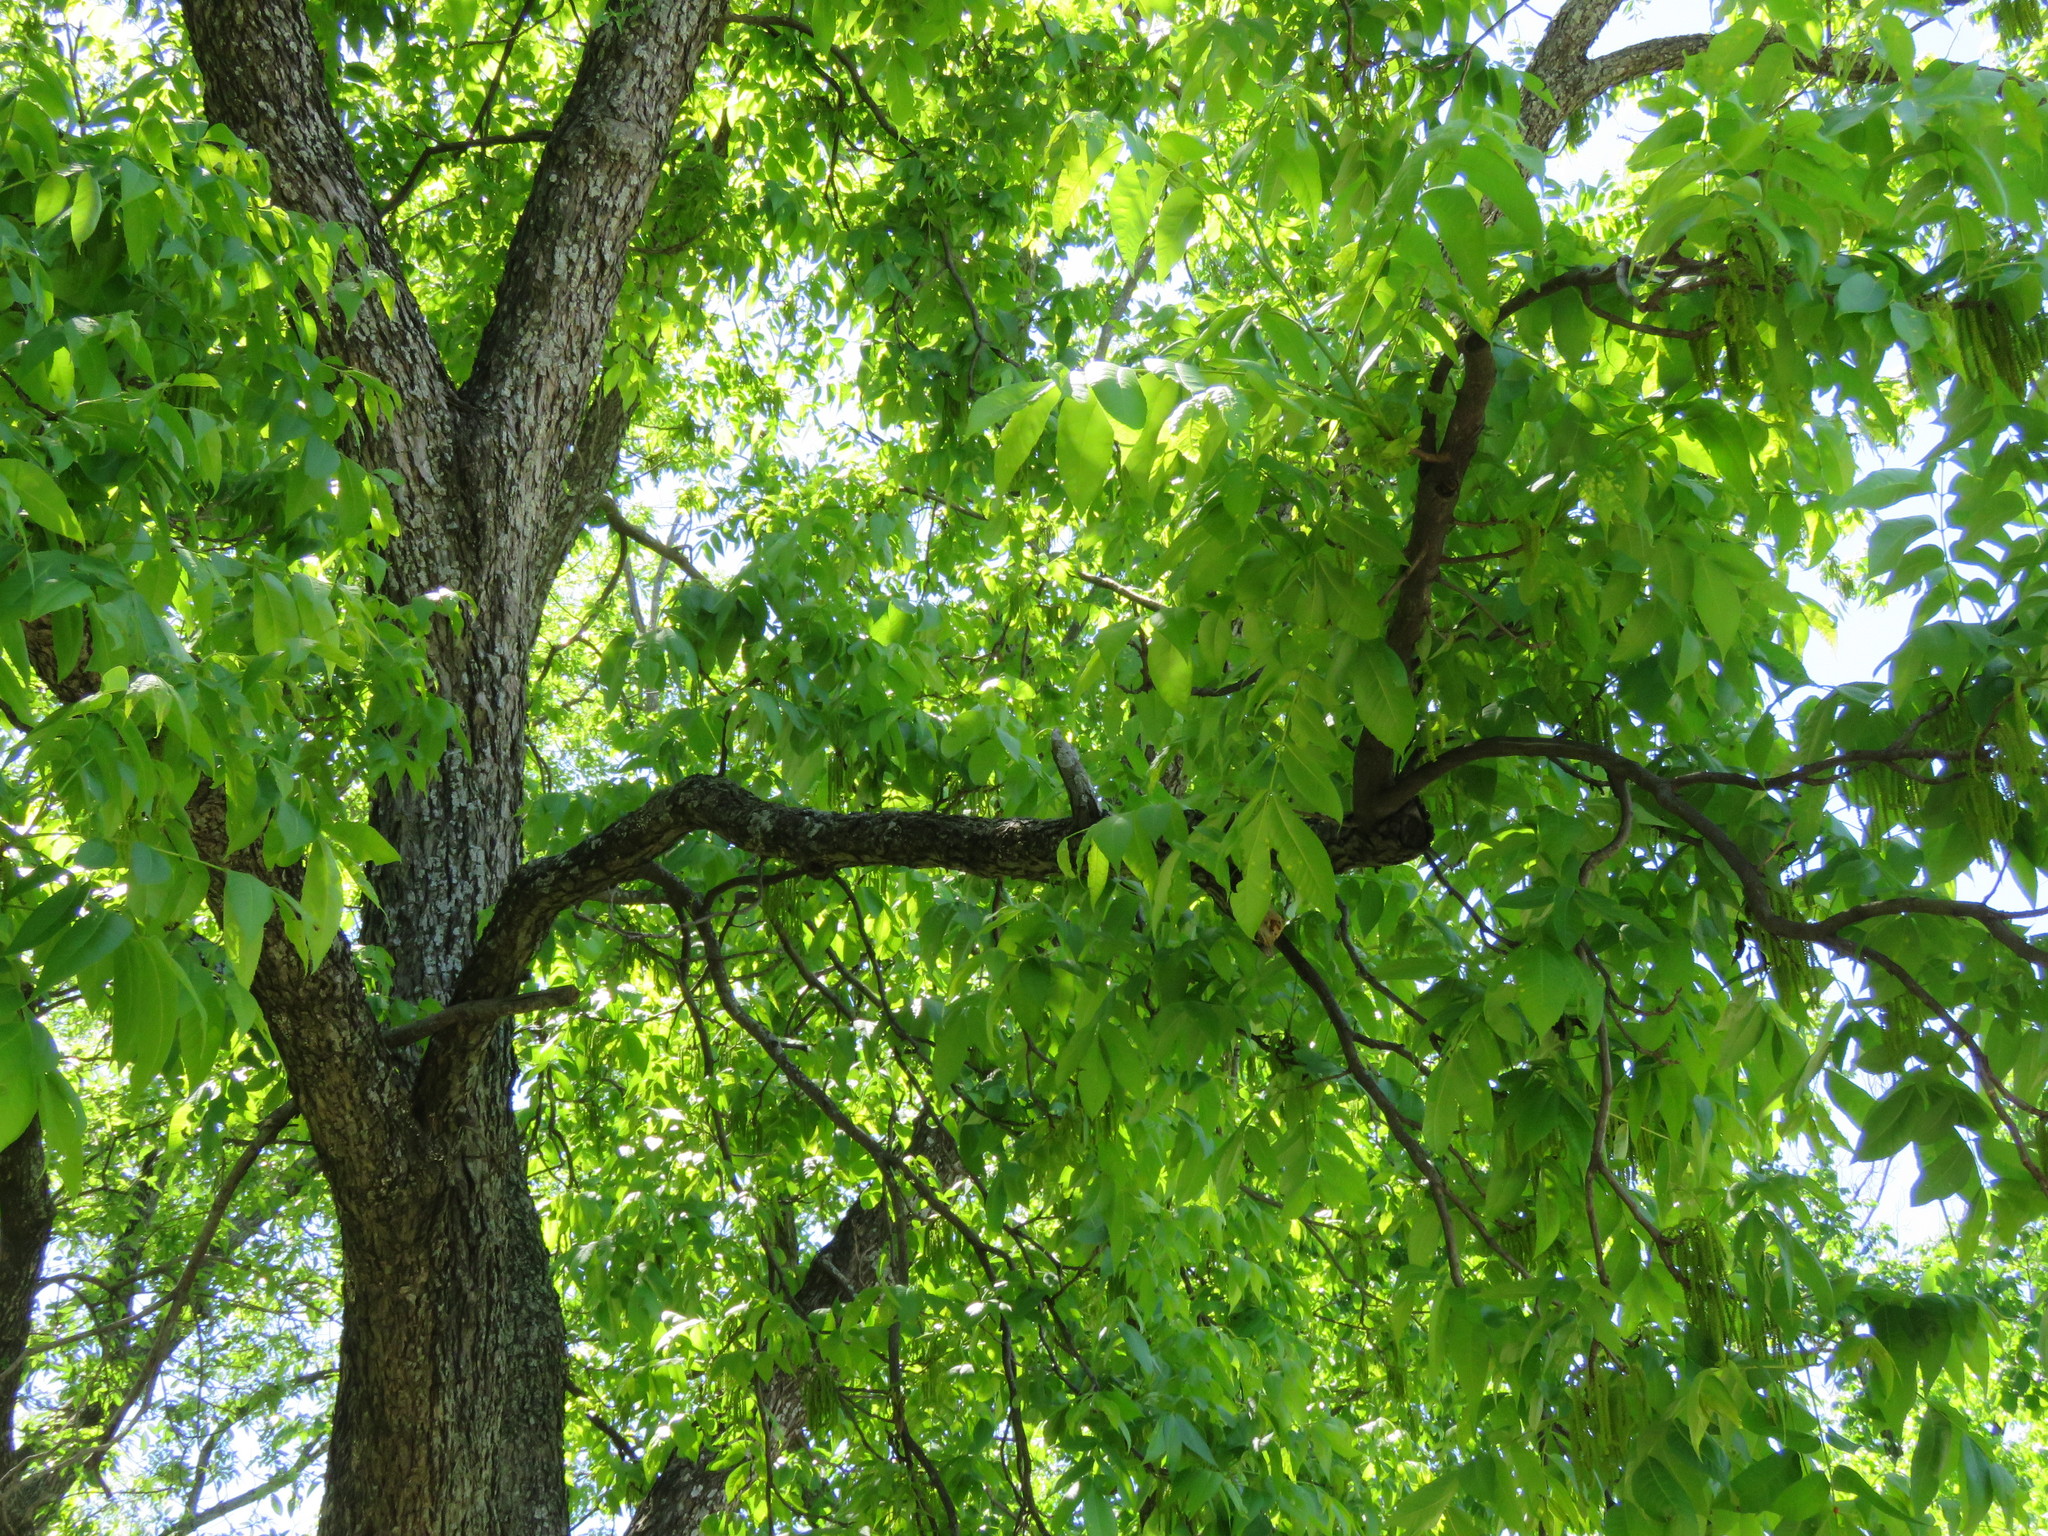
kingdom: Plantae
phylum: Tracheophyta
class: Magnoliopsida
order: Fagales
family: Juglandaceae
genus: Carya
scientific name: Carya illinoinensis
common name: Pecan
